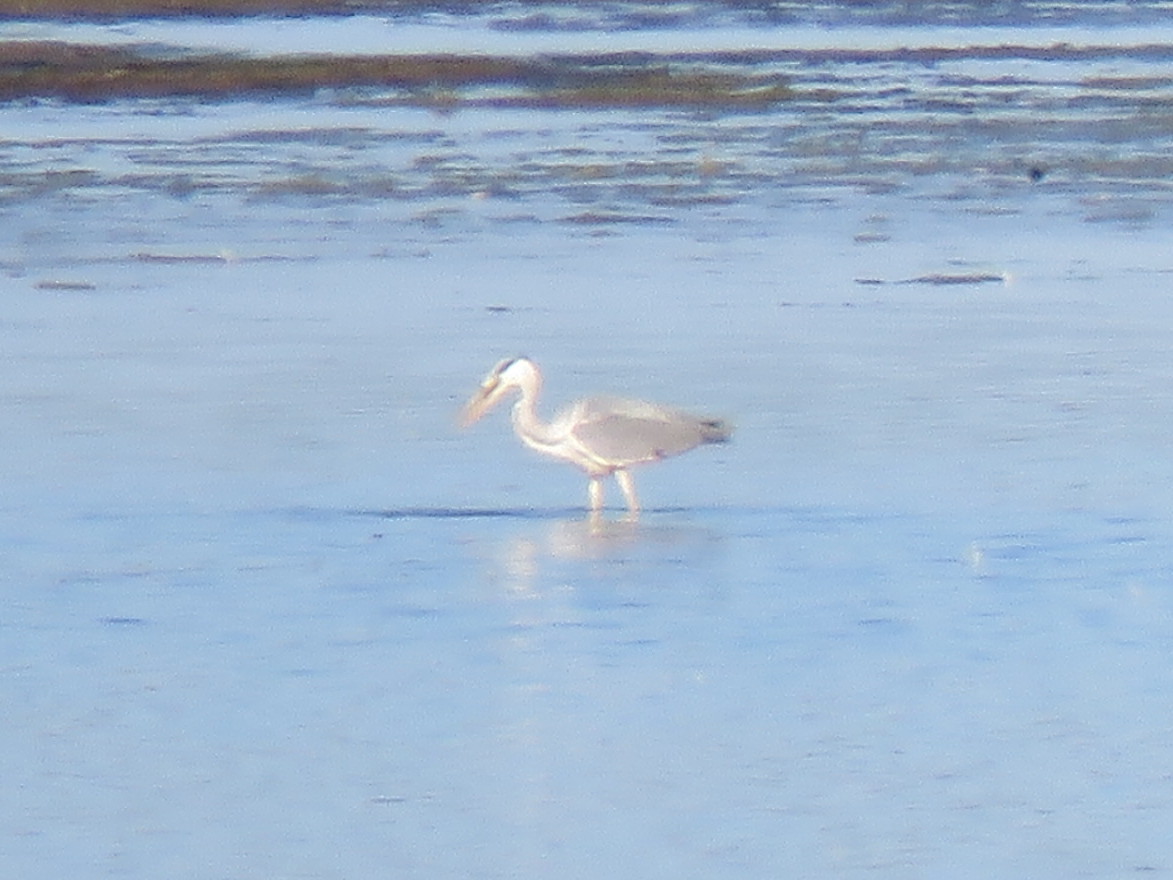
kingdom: Animalia
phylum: Chordata
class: Aves
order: Pelecaniformes
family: Ardeidae
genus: Ardea
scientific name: Ardea cinerea
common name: Grey heron
